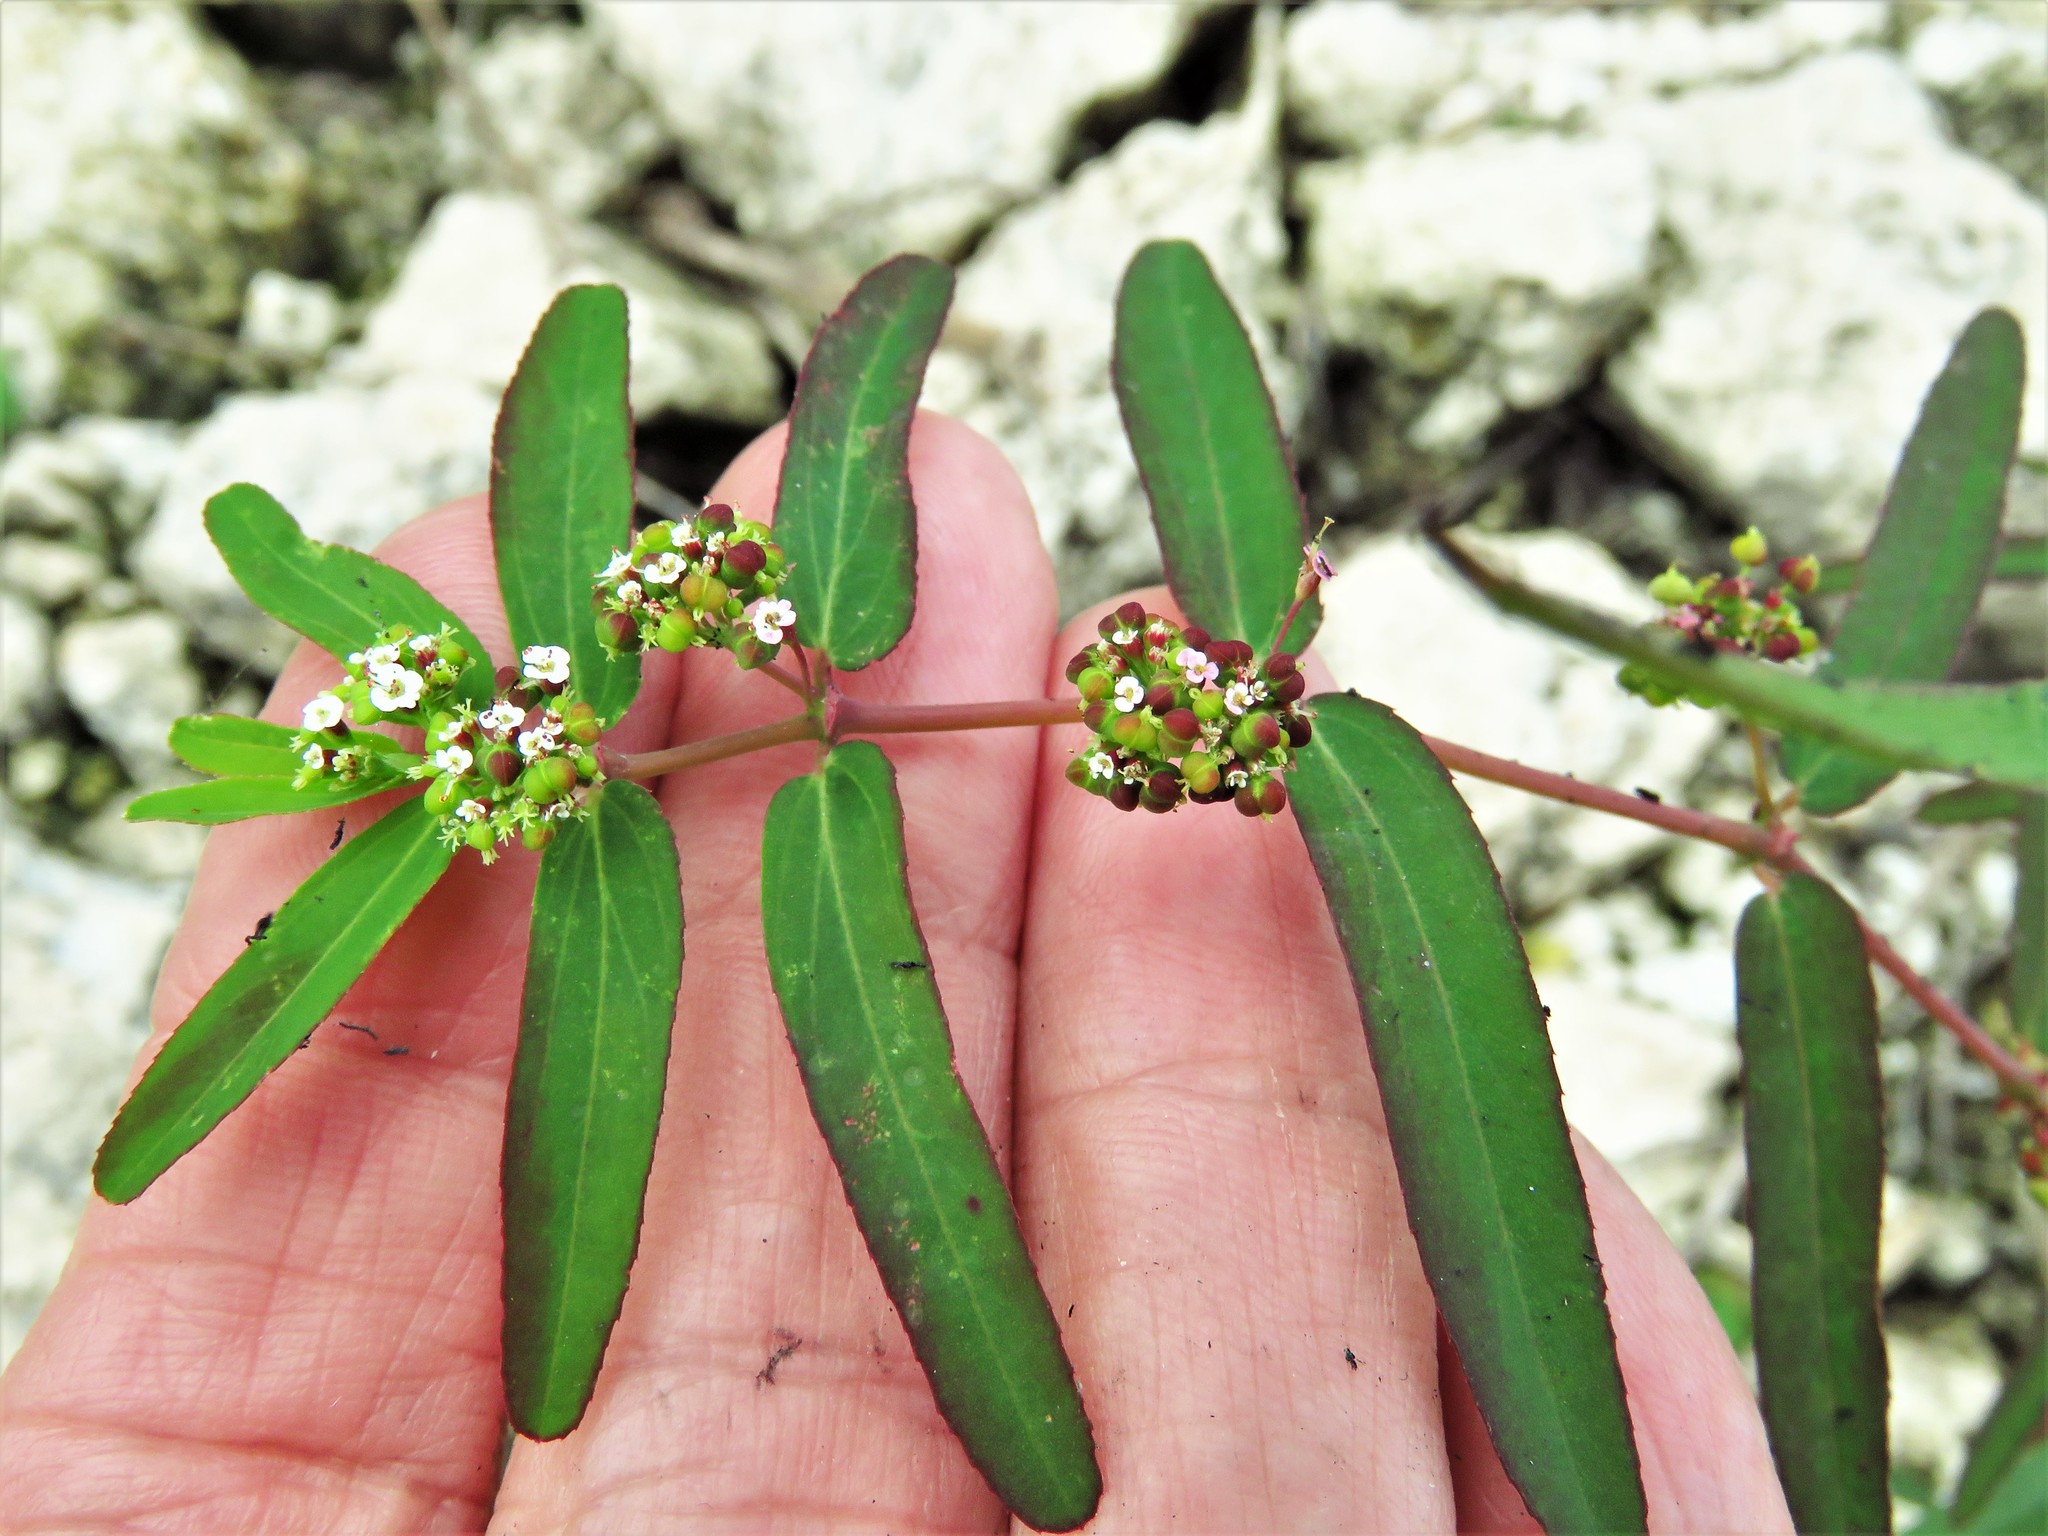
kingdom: Plantae
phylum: Tracheophyta
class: Magnoliopsida
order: Malpighiales
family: Euphorbiaceae
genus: Euphorbia
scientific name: Euphorbia hypericifolia
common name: Graceful sandmat
